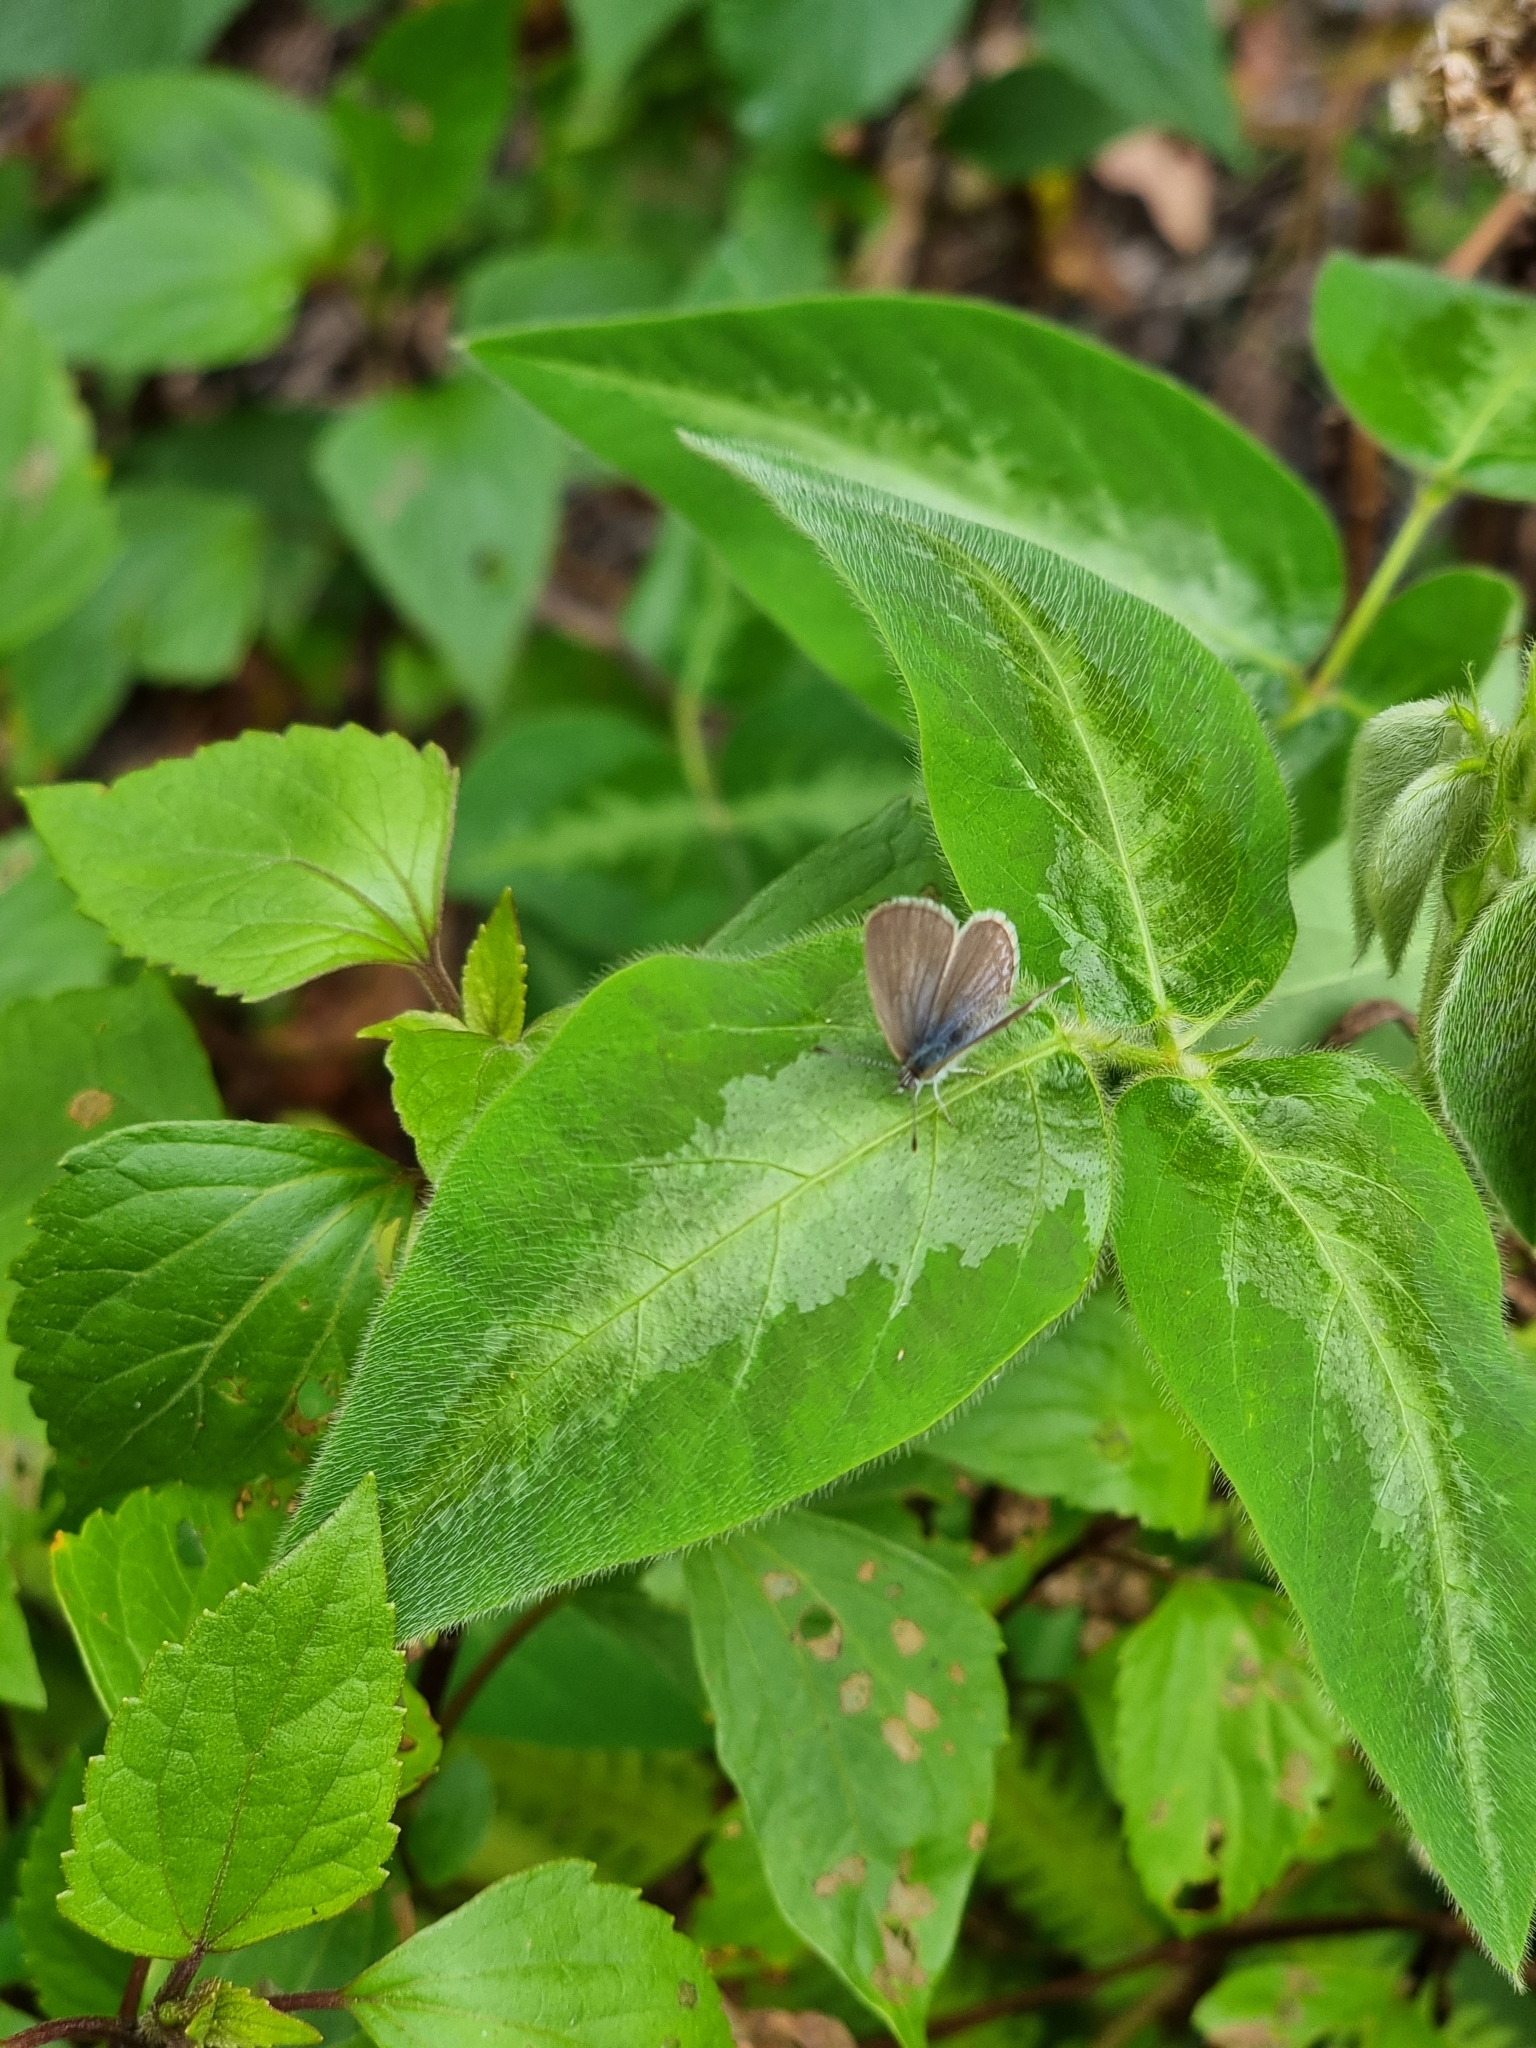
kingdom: Animalia
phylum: Arthropoda
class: Insecta
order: Lepidoptera
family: Lycaenidae
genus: Zizina
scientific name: Zizina labradus
